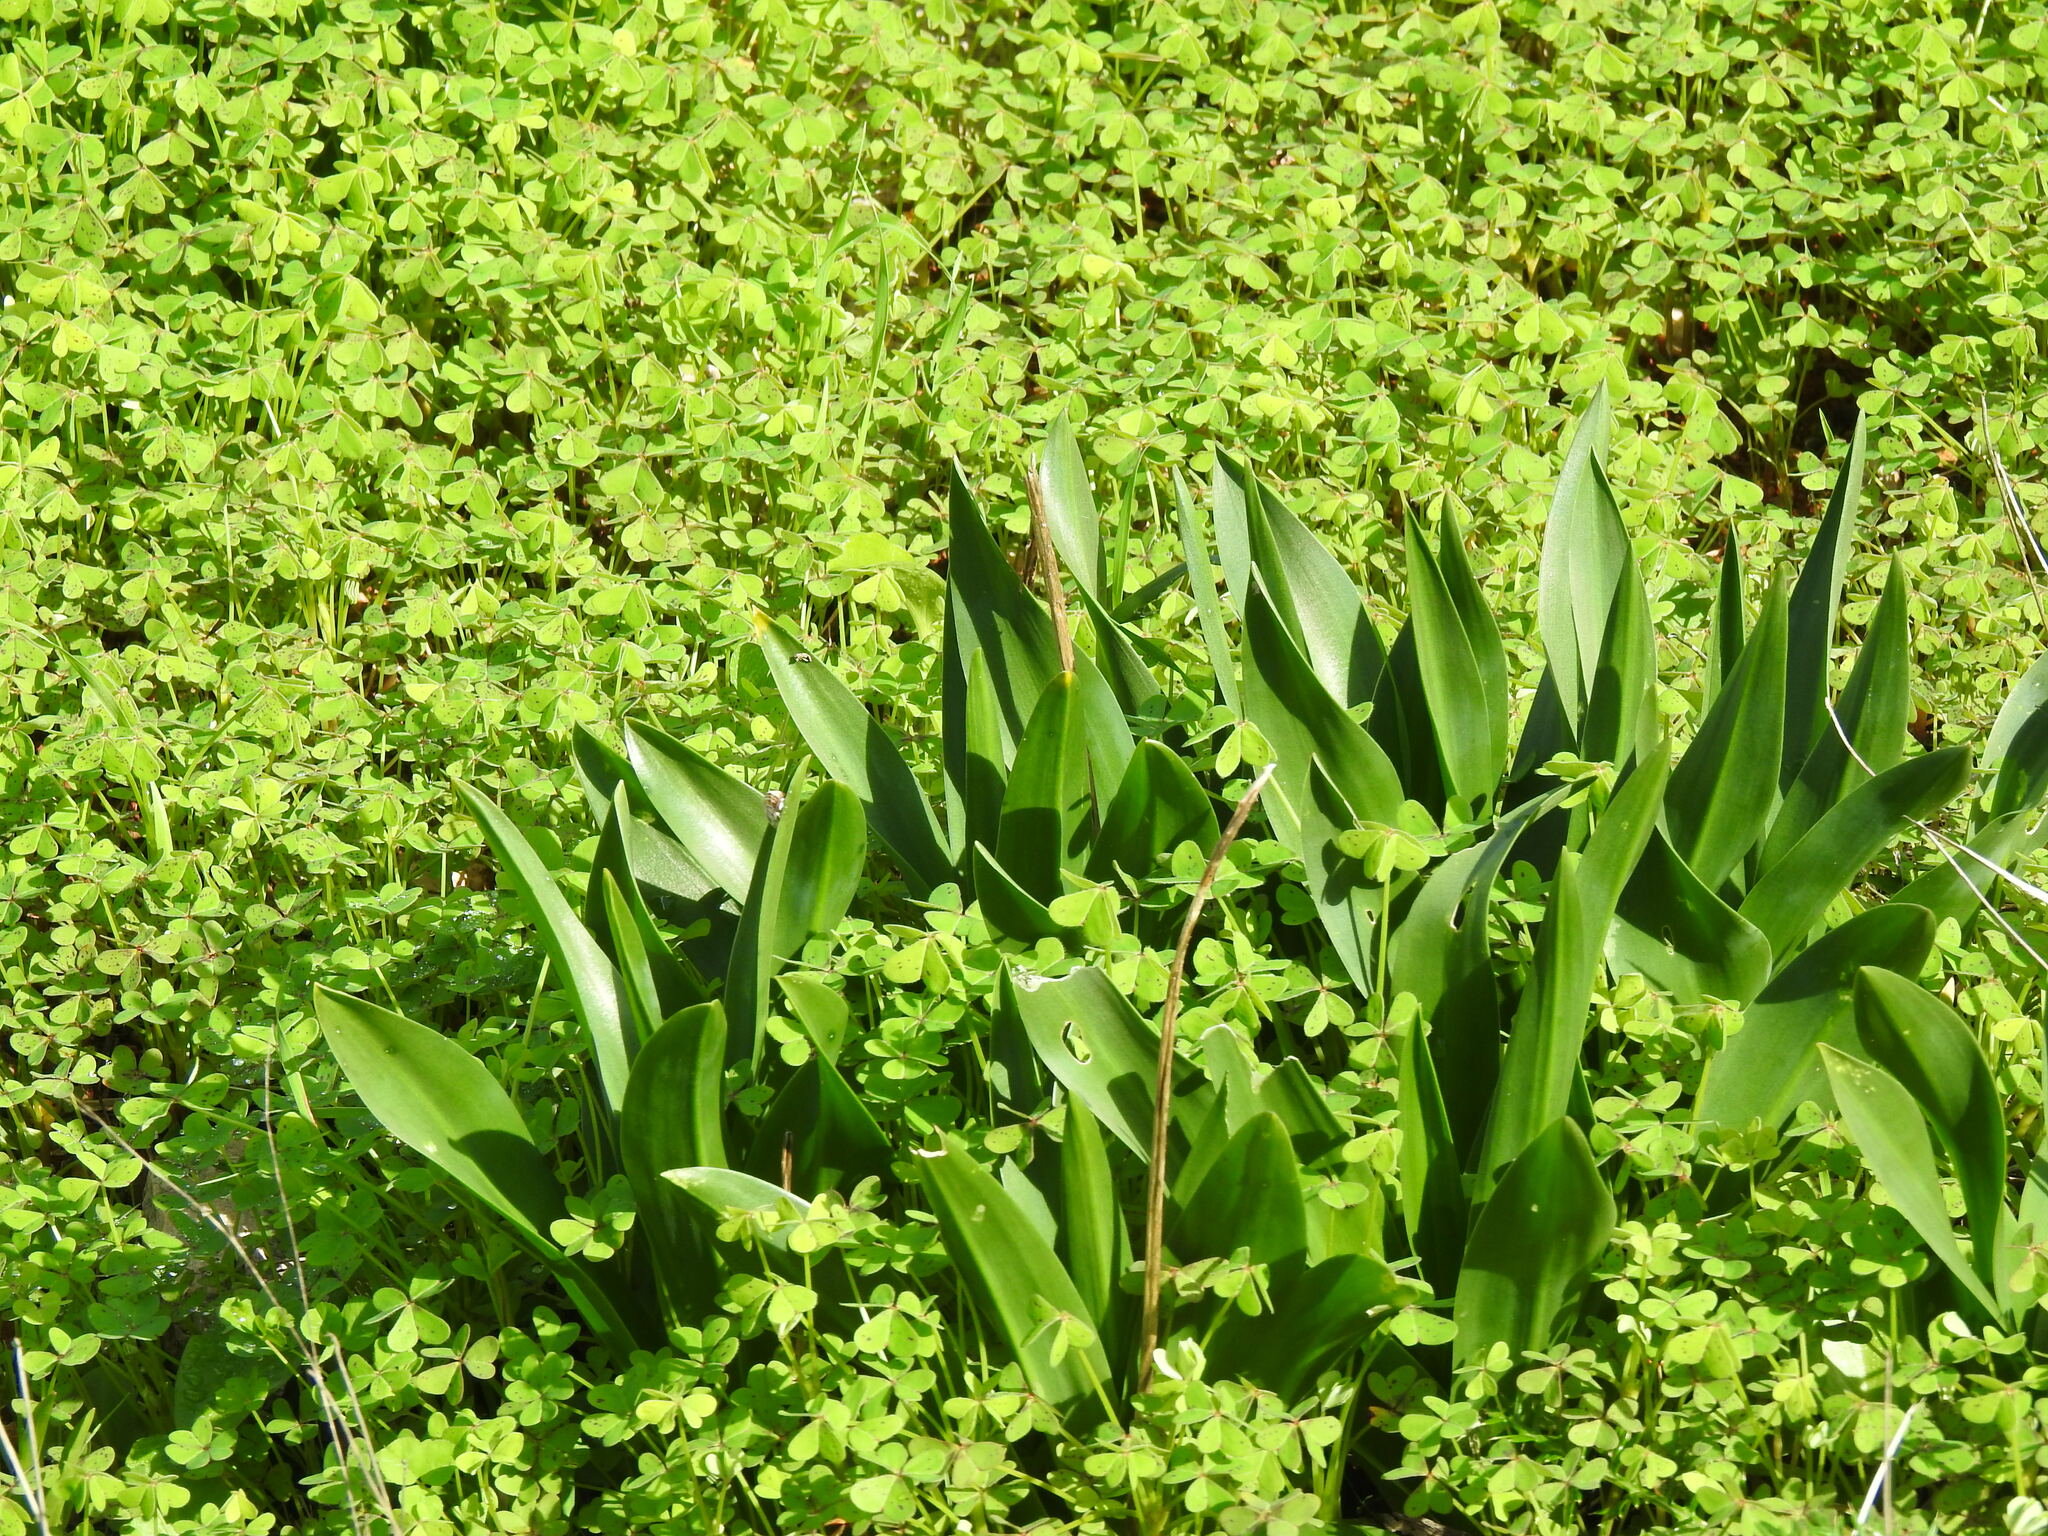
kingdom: Plantae
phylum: Tracheophyta
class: Liliopsida
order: Asparagales
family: Asparagaceae
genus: Drimia
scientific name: Drimia maritima
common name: Maritime squill
